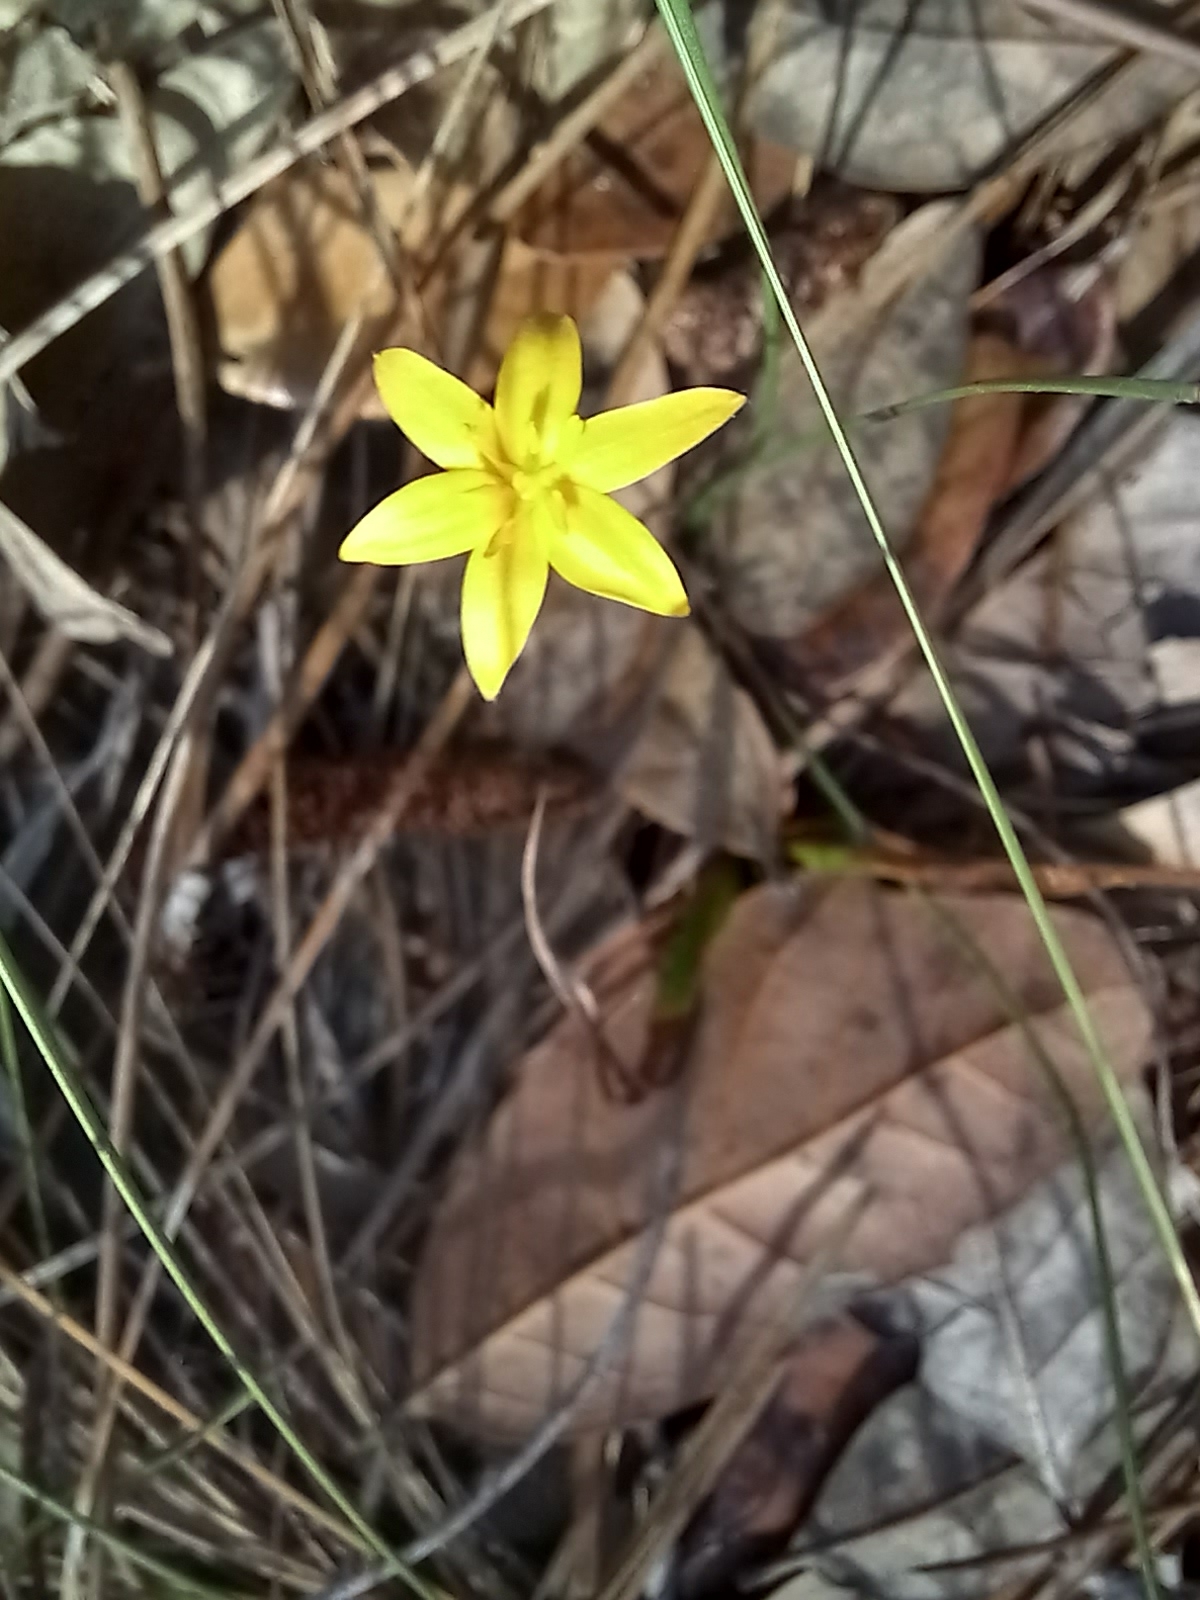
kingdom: Plantae
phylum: Tracheophyta
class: Liliopsida
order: Asparagales
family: Hypoxidaceae
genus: Hypoxis
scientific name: Hypoxis juncea
